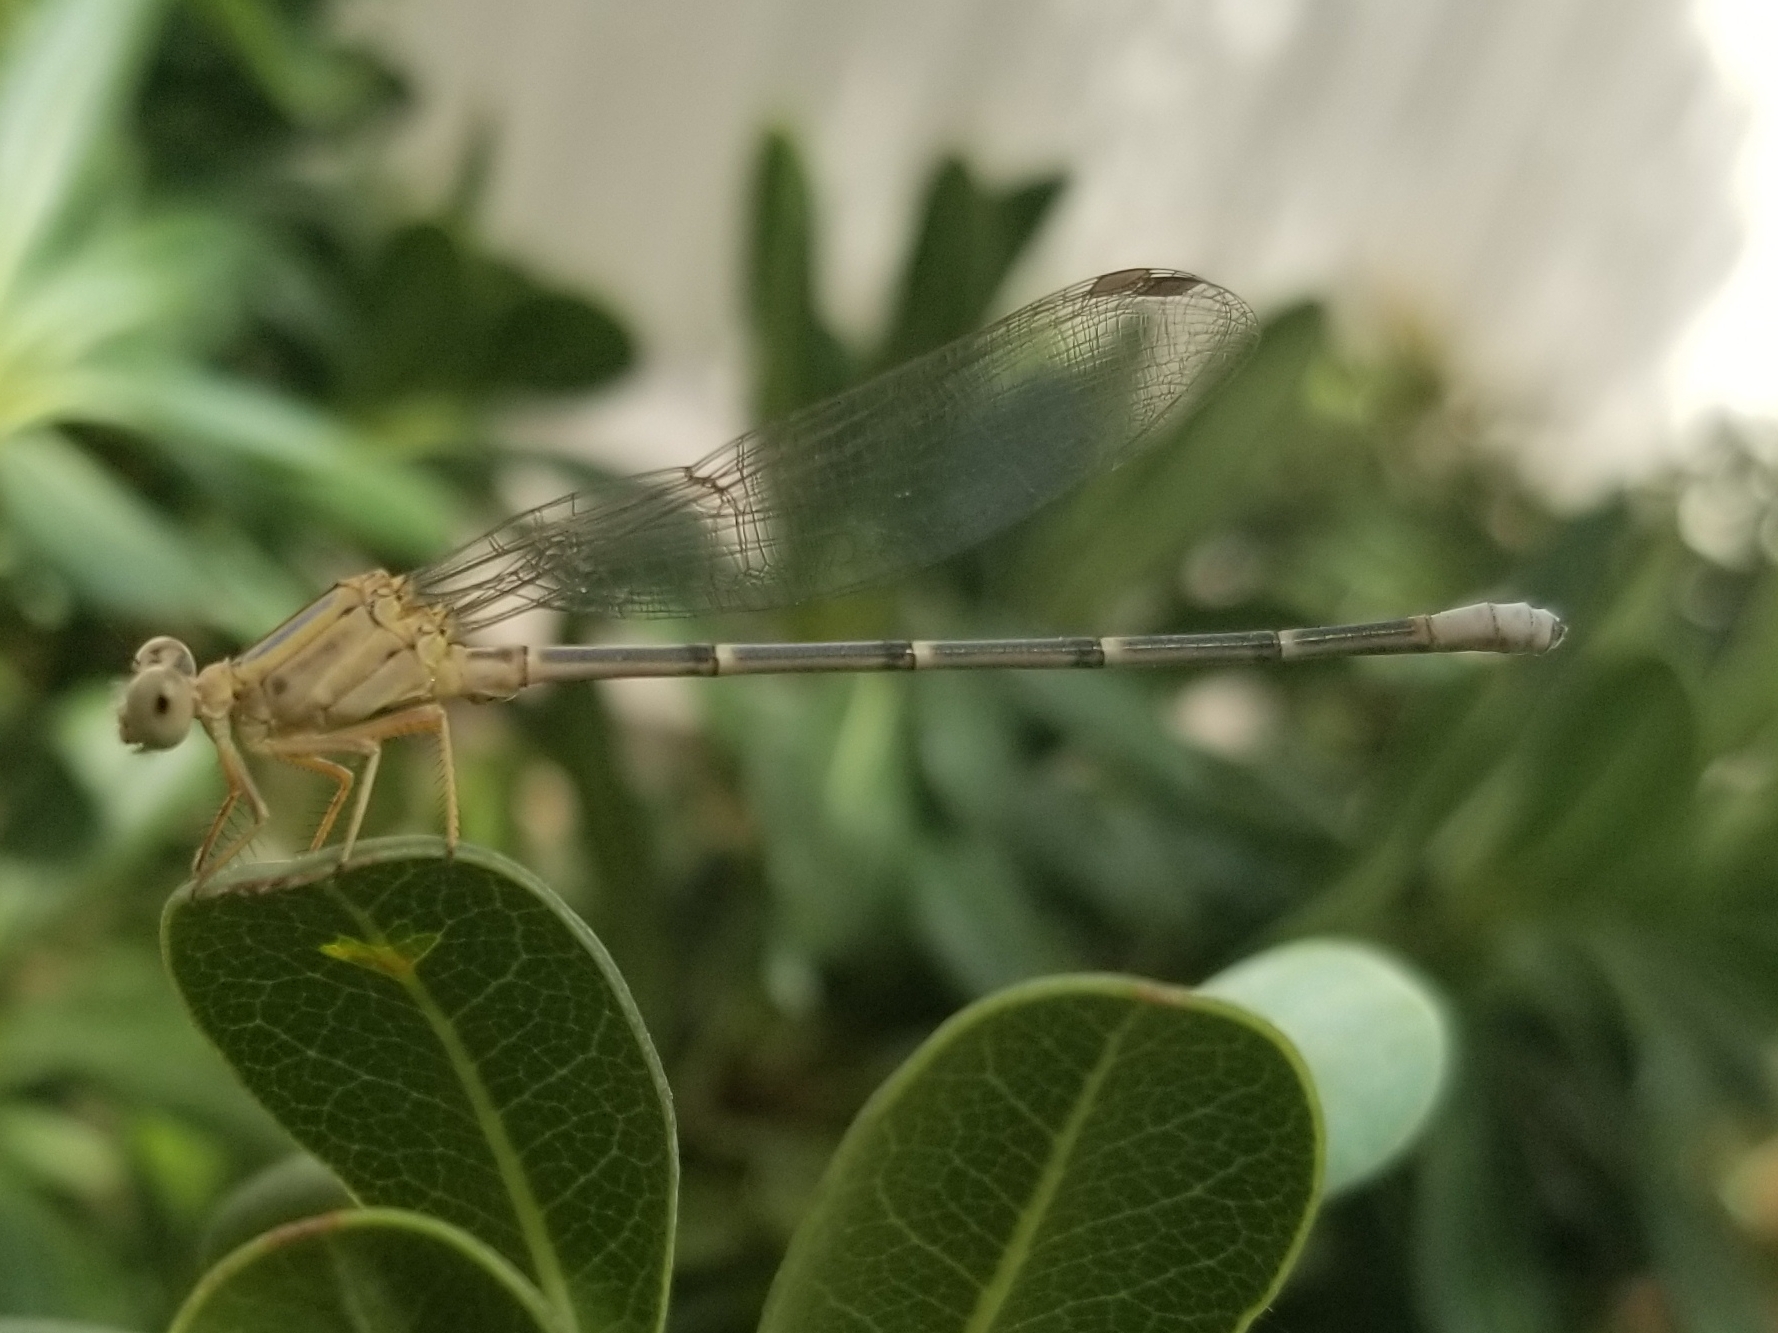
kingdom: Animalia
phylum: Arthropoda
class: Insecta
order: Odonata
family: Coenagrionidae
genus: Argia
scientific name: Argia moesta
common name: Powdered dancer
